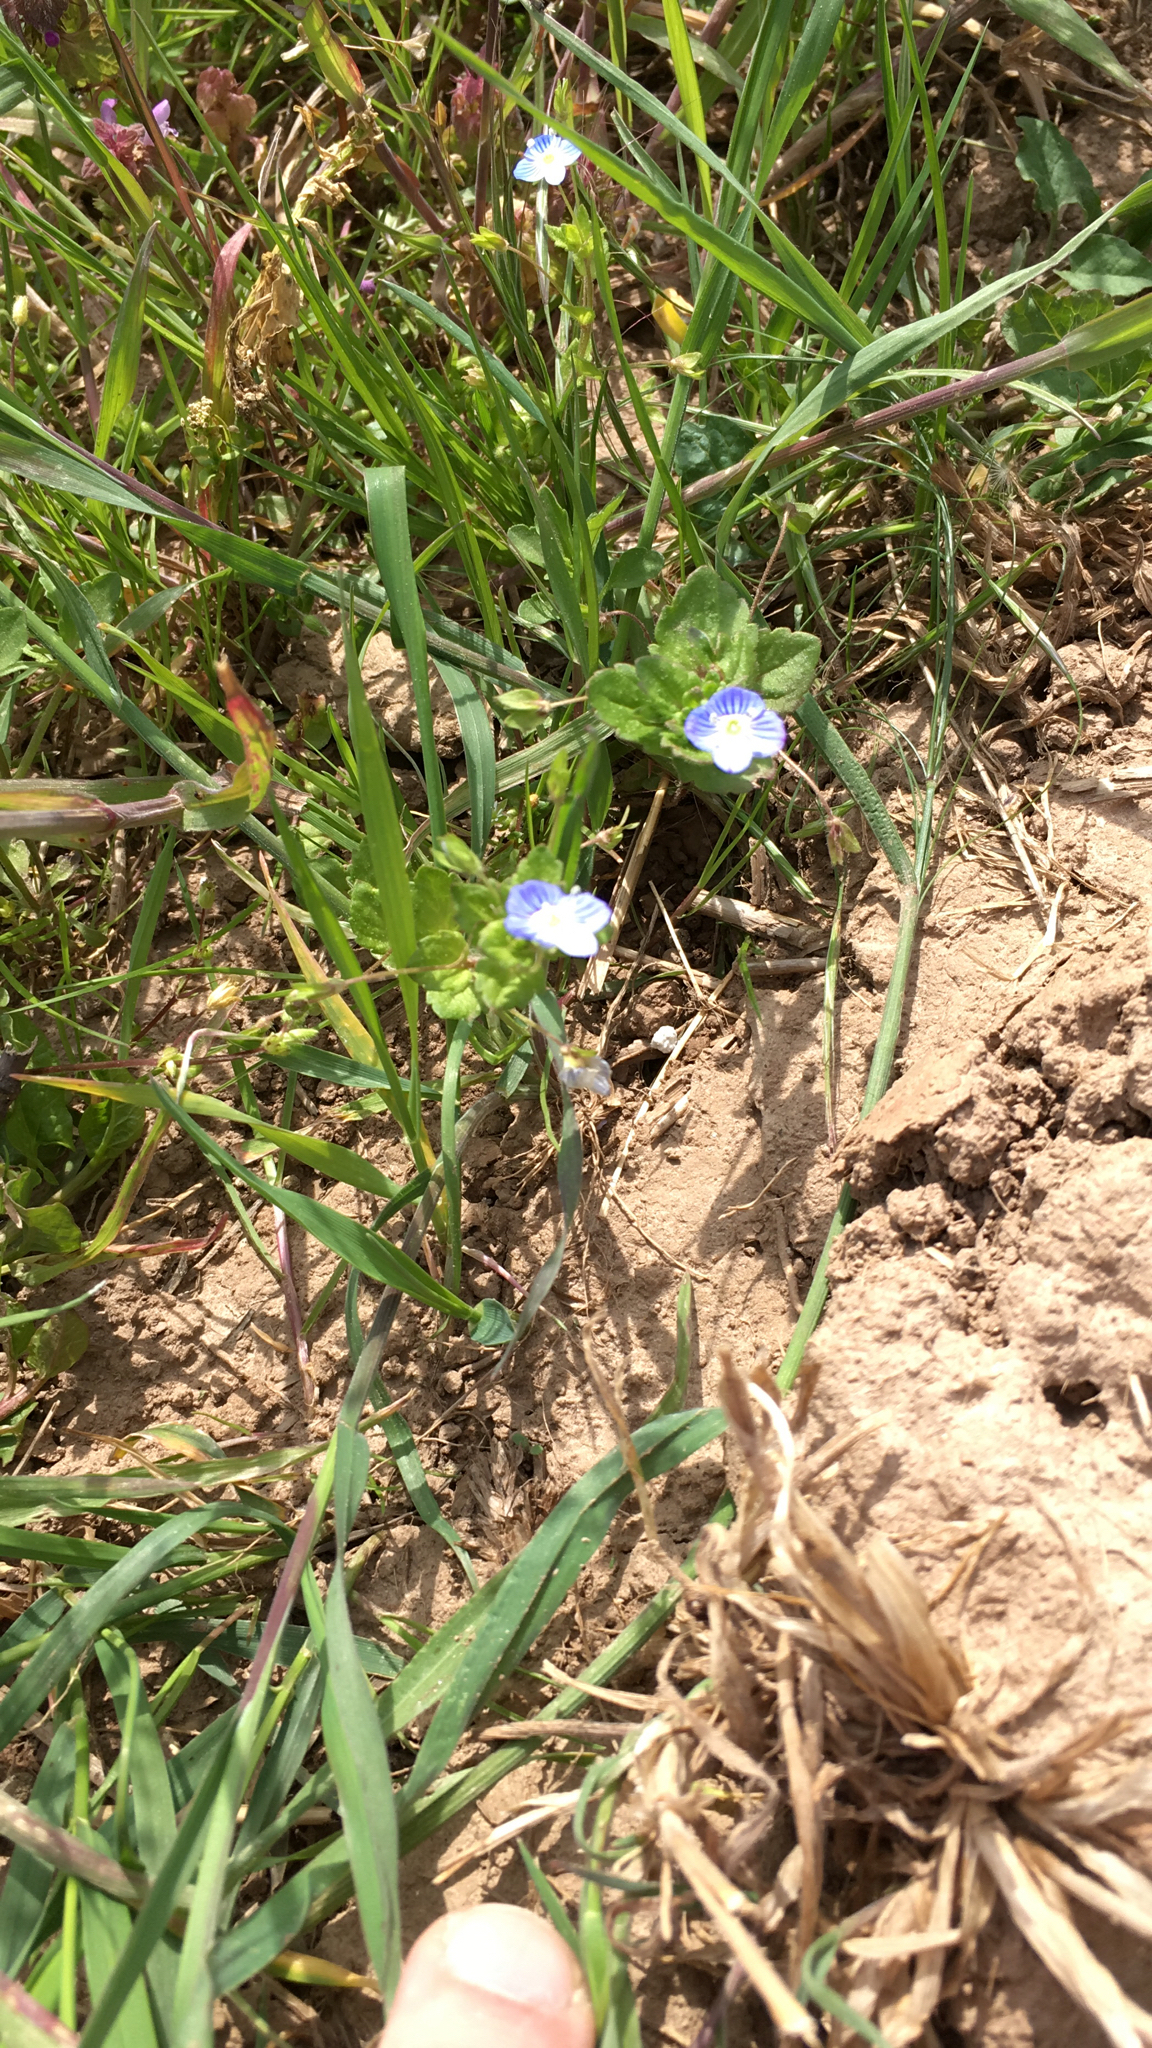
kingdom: Plantae
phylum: Tracheophyta
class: Magnoliopsida
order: Lamiales
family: Plantaginaceae
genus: Veronica
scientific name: Veronica persica
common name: Common field-speedwell
